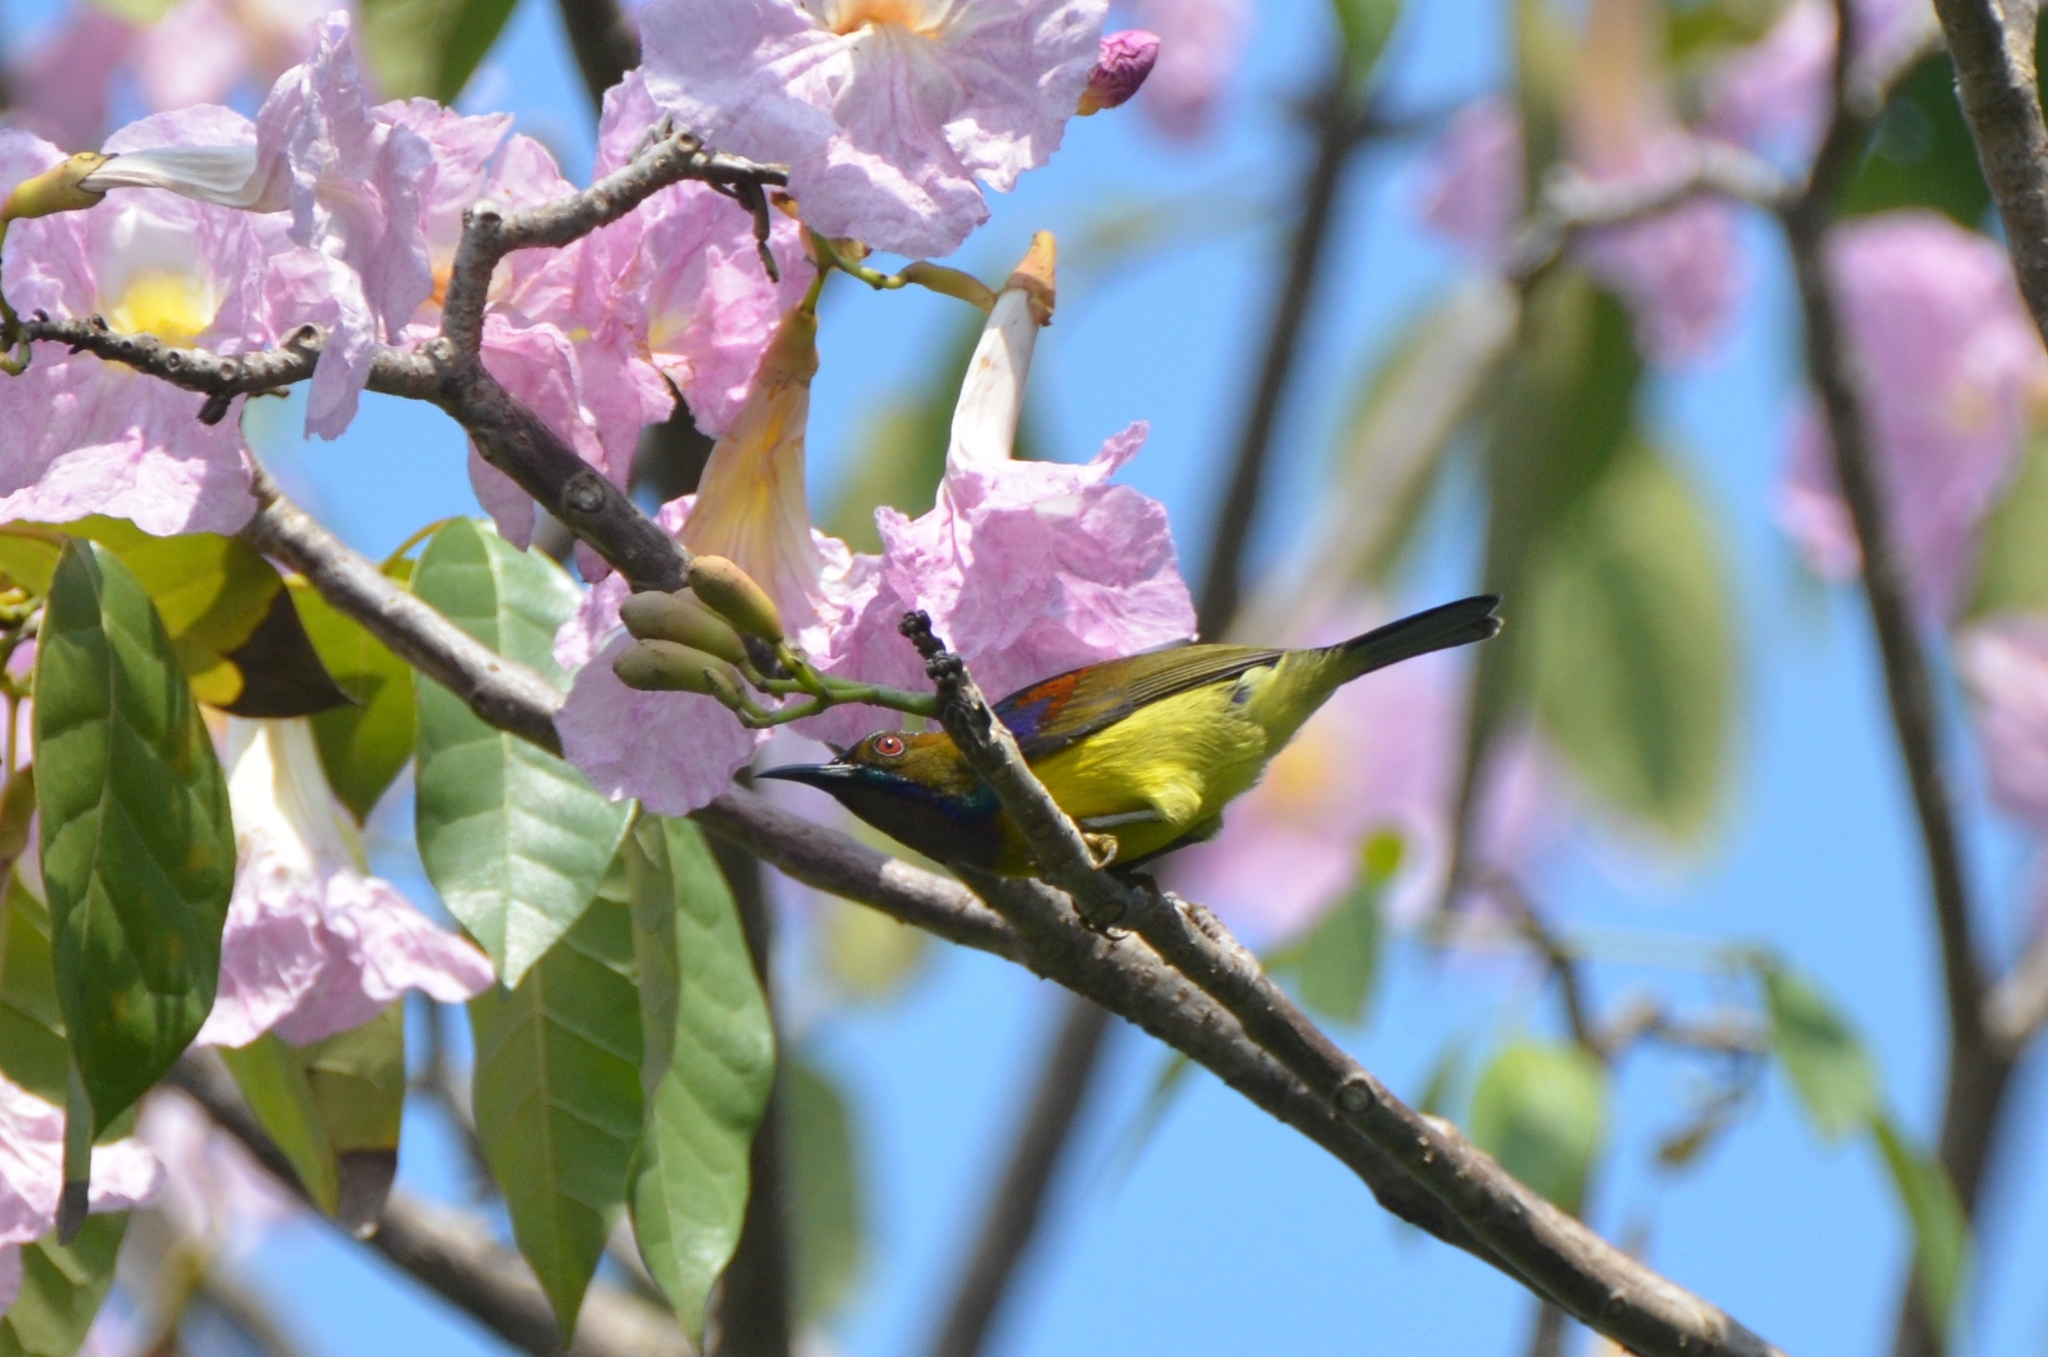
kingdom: Animalia
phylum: Chordata
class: Aves
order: Passeriformes
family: Nectariniidae
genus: Anthreptes
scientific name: Anthreptes malacensis
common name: Brown-throated sunbird
